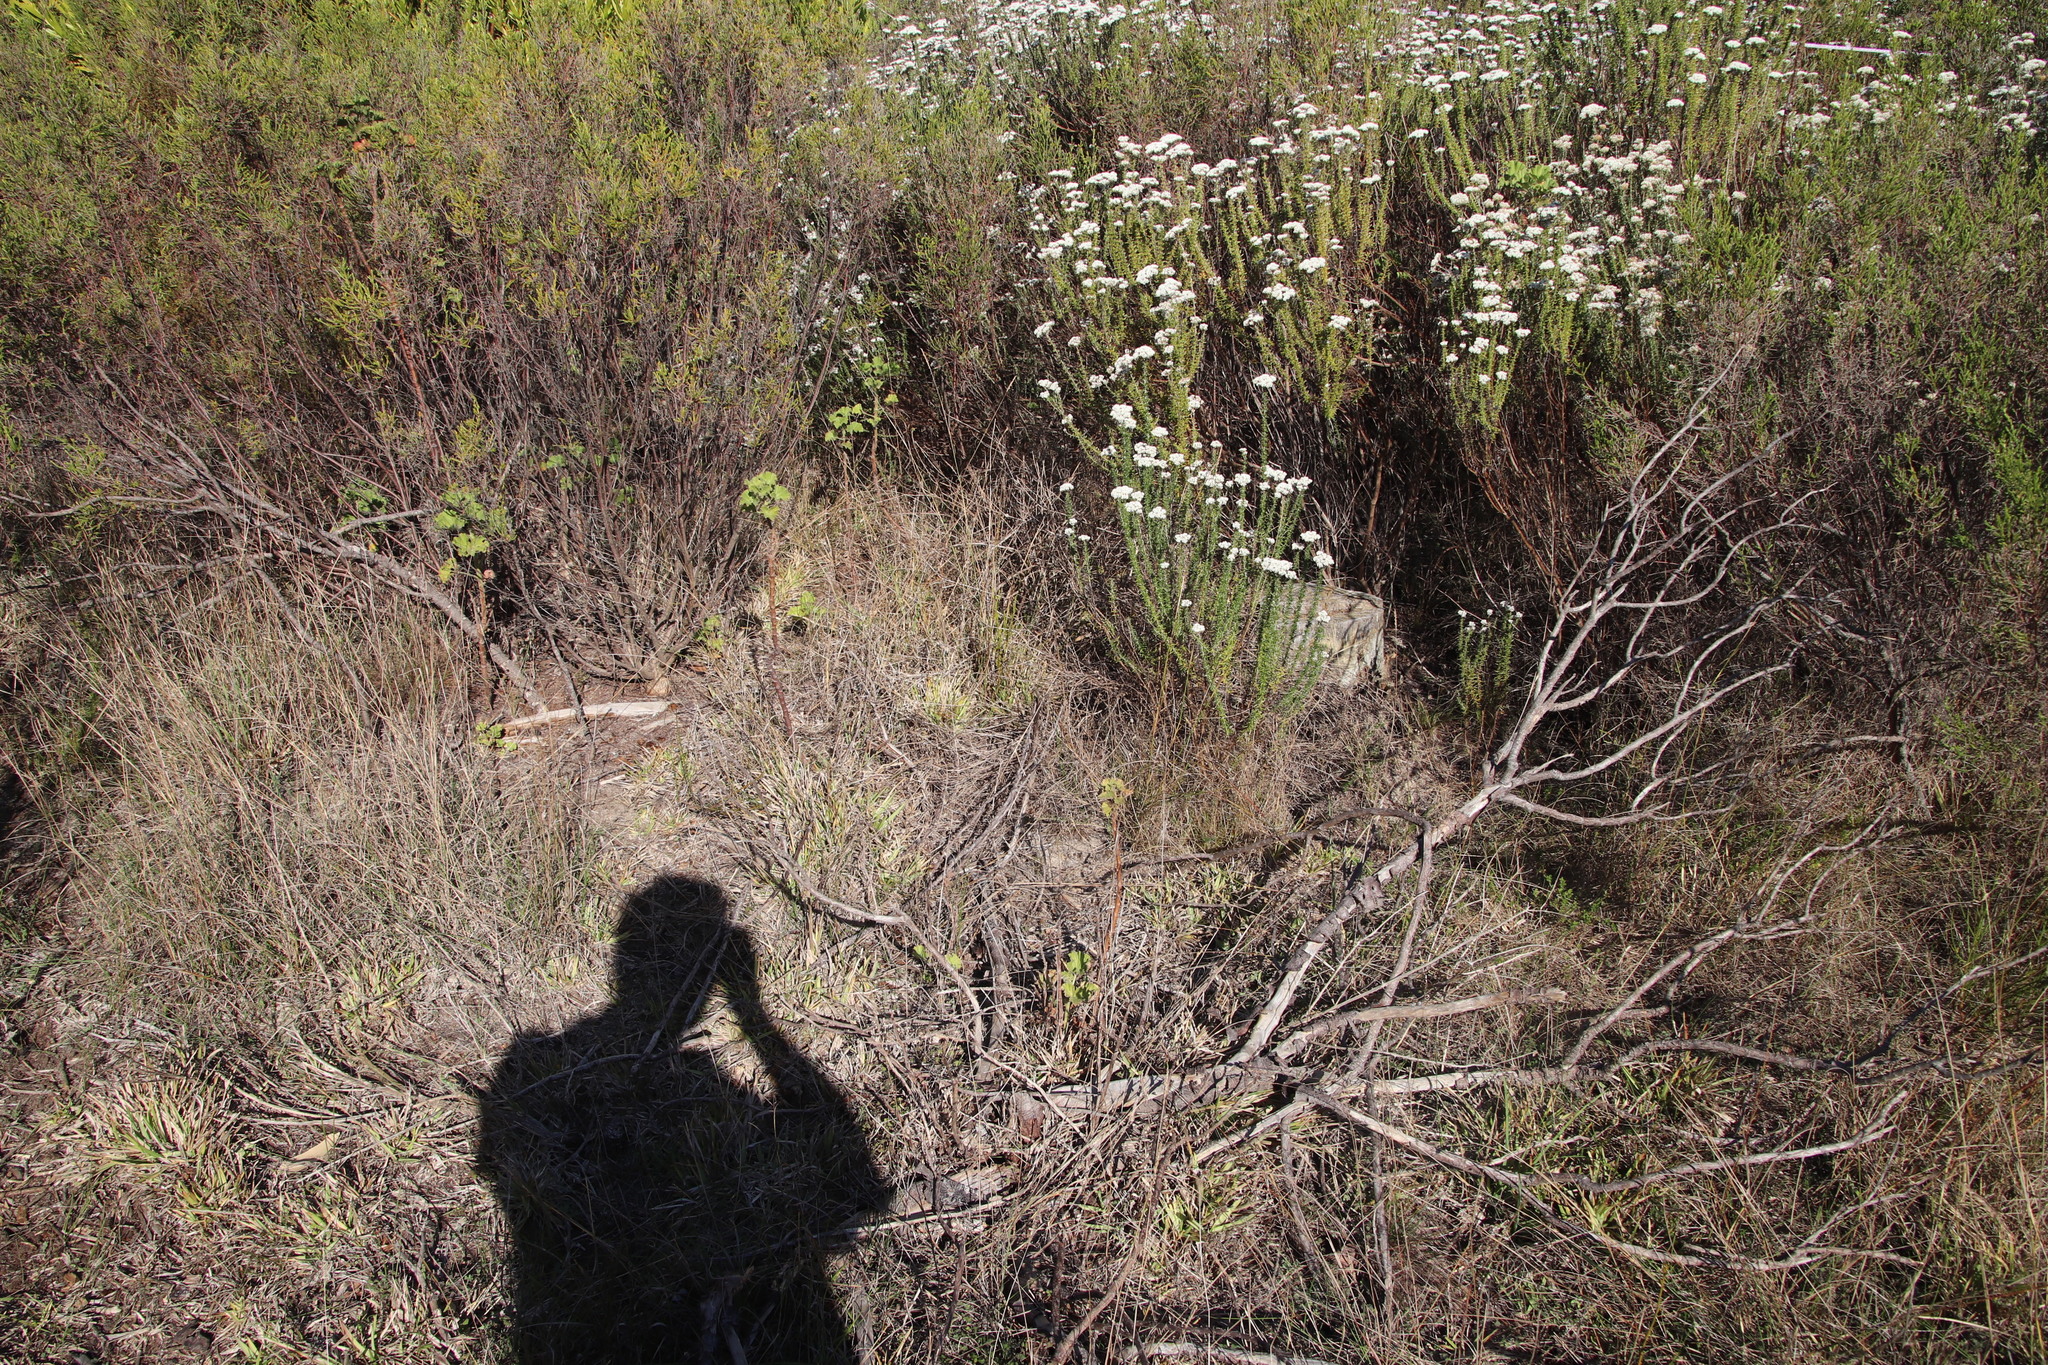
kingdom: Animalia
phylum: Chordata
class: Mammalia
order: Carnivora
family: Felidae
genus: Caracal
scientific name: Caracal caracal
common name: Caracal
